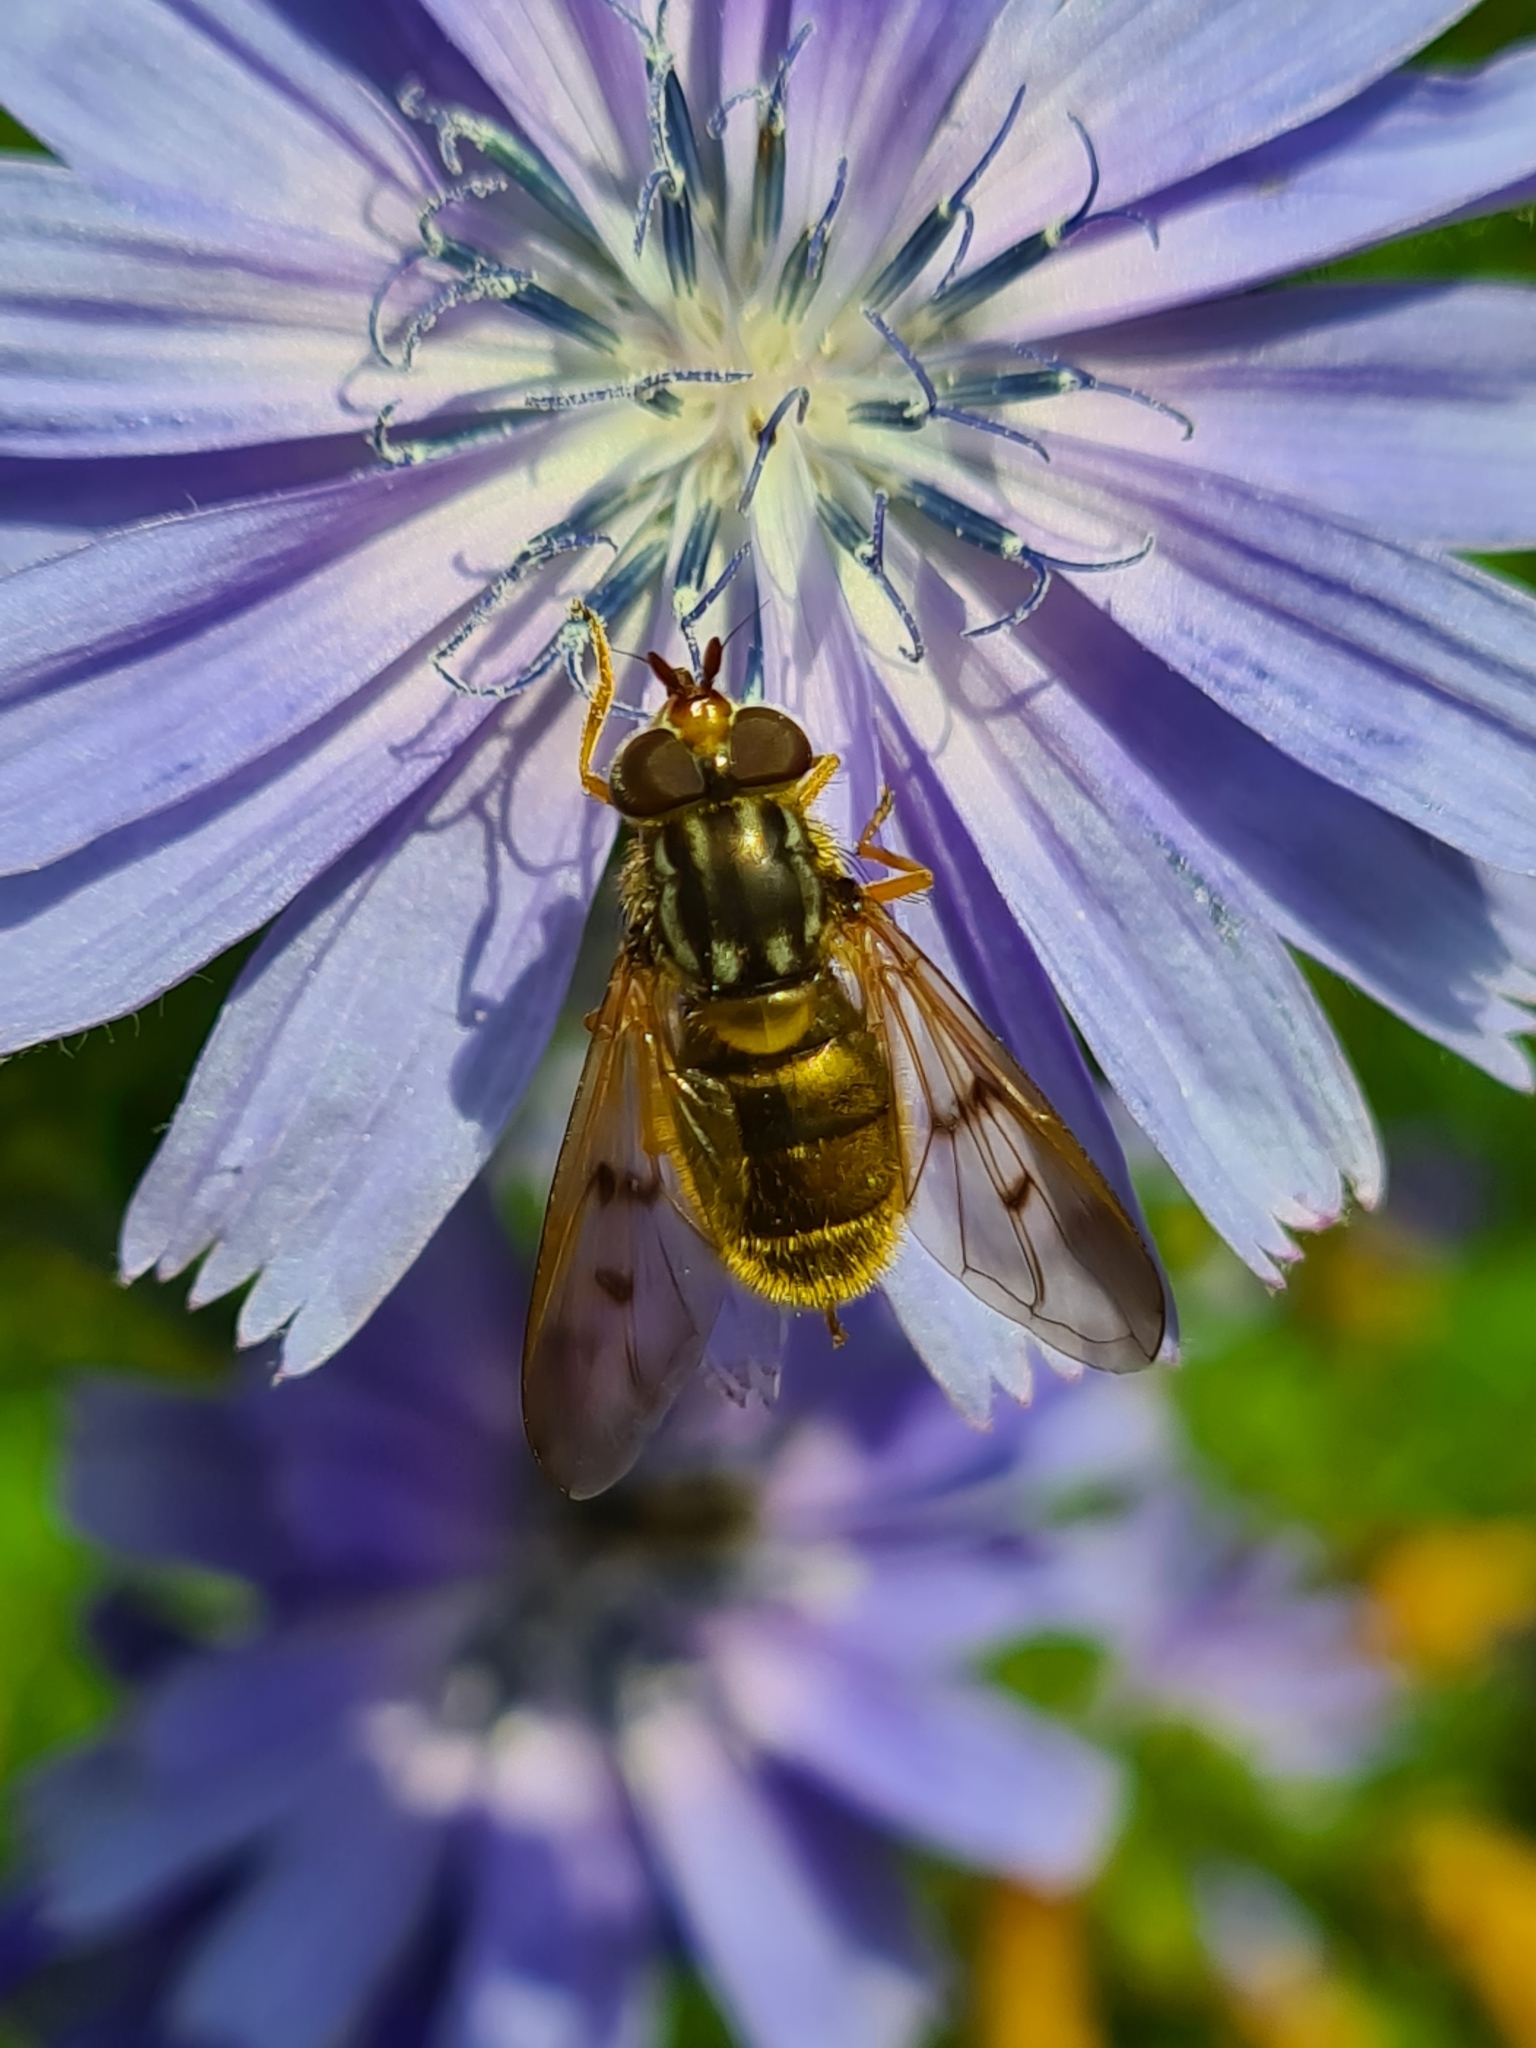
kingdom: Animalia
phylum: Arthropoda
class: Insecta
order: Diptera
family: Syrphidae
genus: Ferdinandea
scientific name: Ferdinandea cuprea
